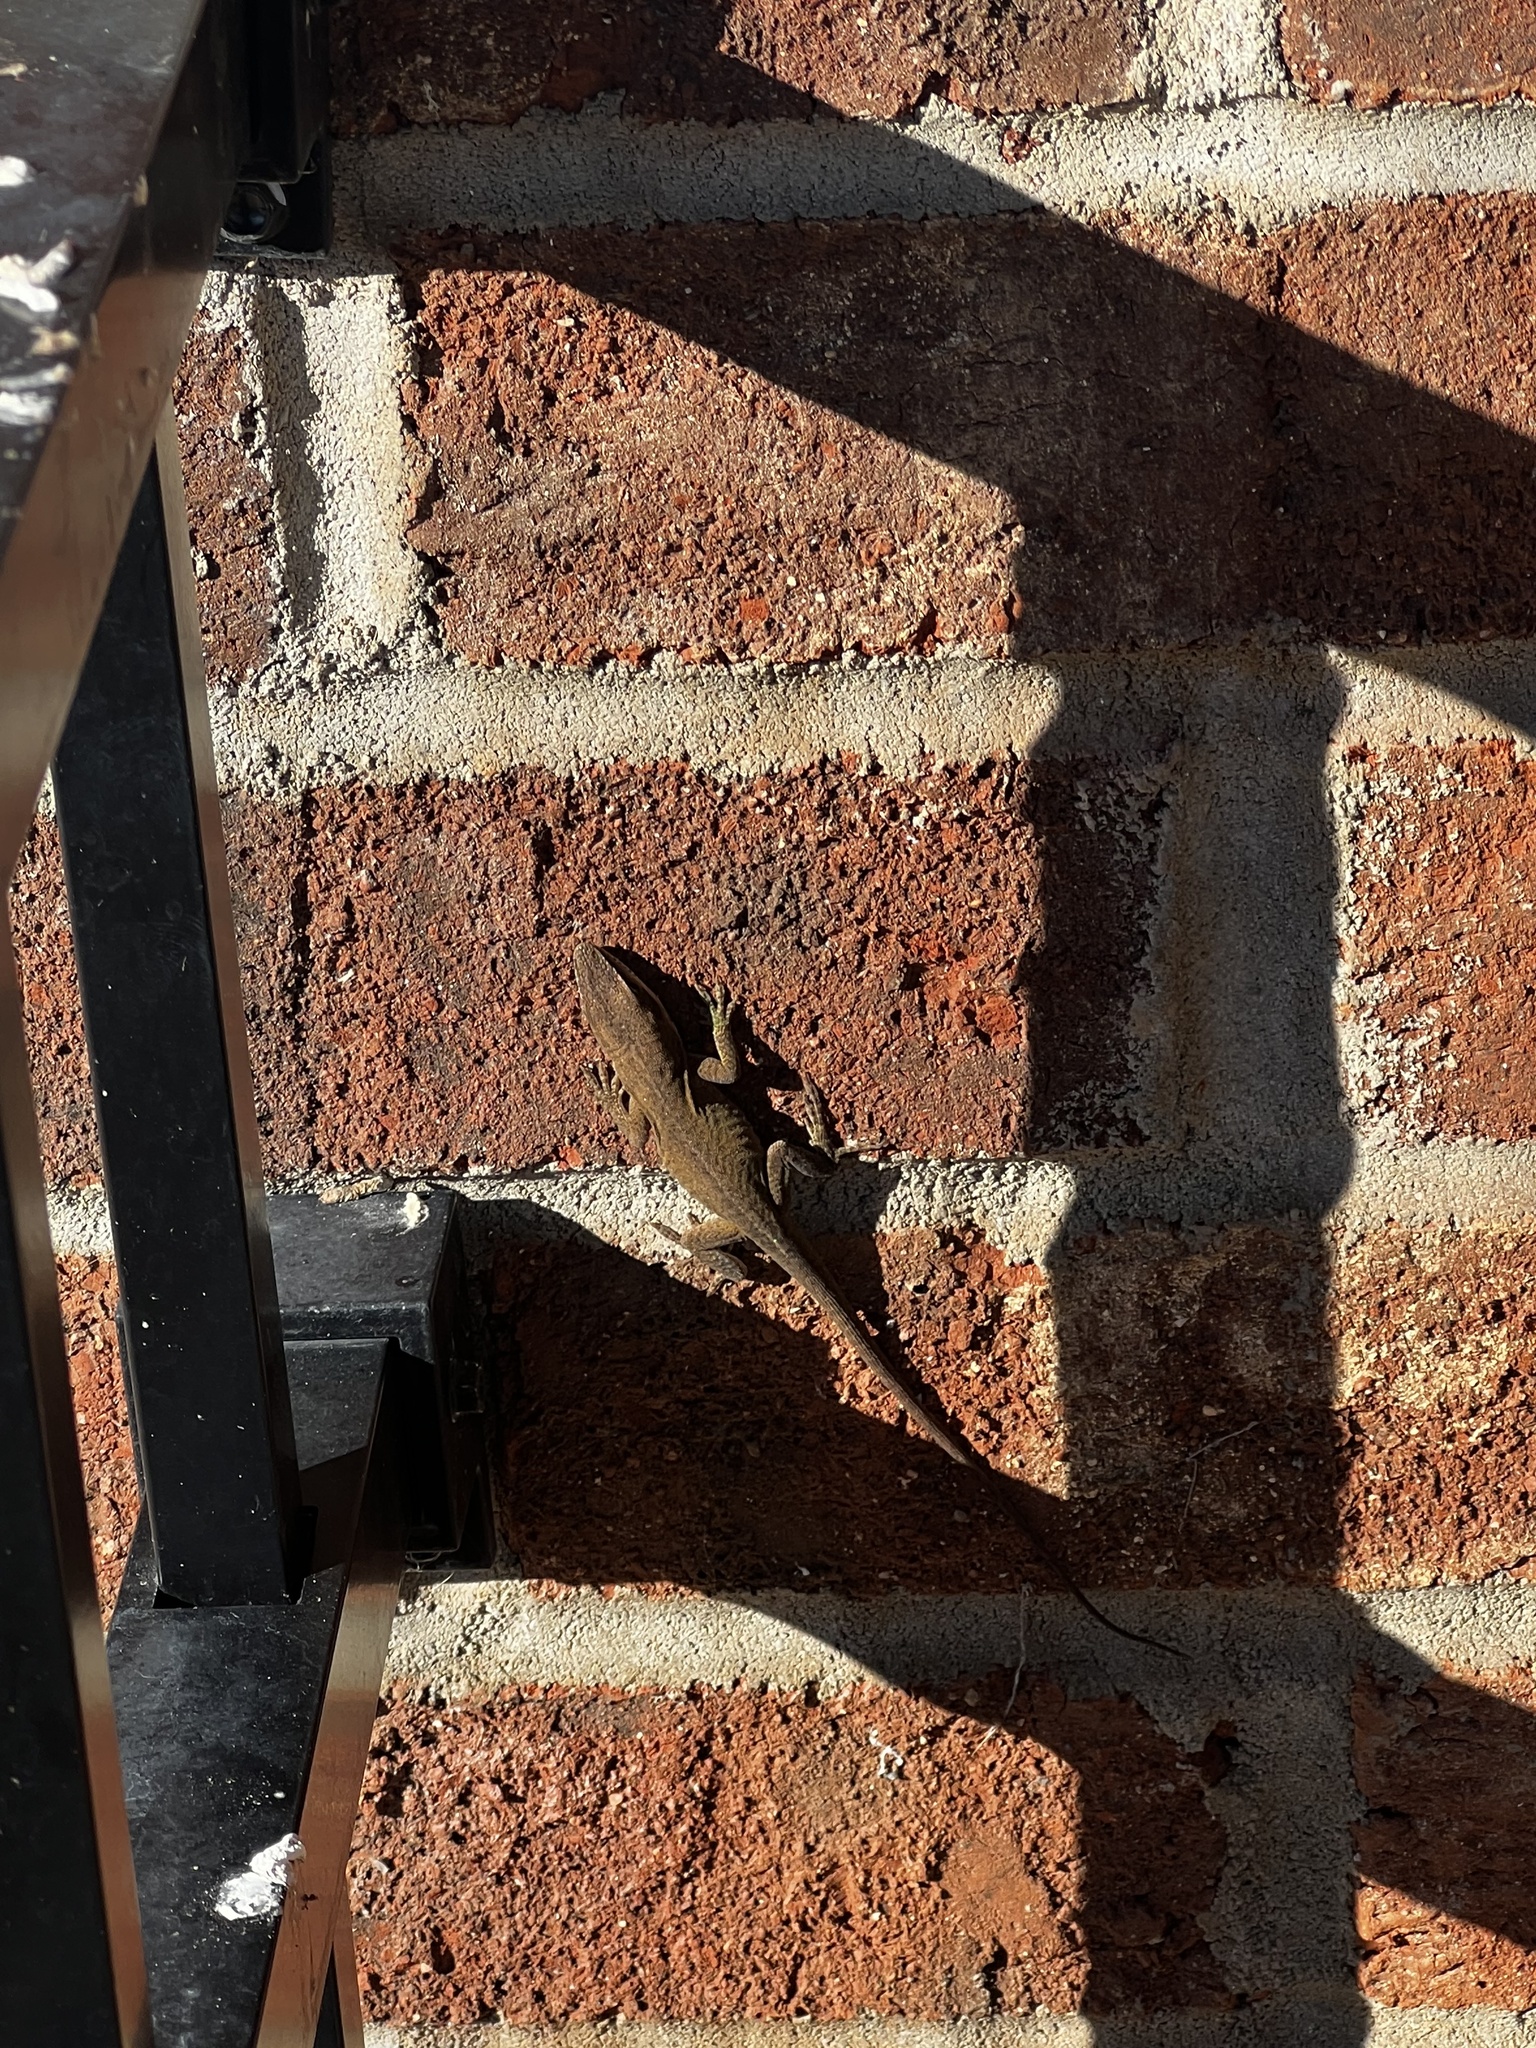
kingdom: Animalia
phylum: Chordata
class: Squamata
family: Dactyloidae
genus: Anolis
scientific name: Anolis carolinensis
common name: Green anole
